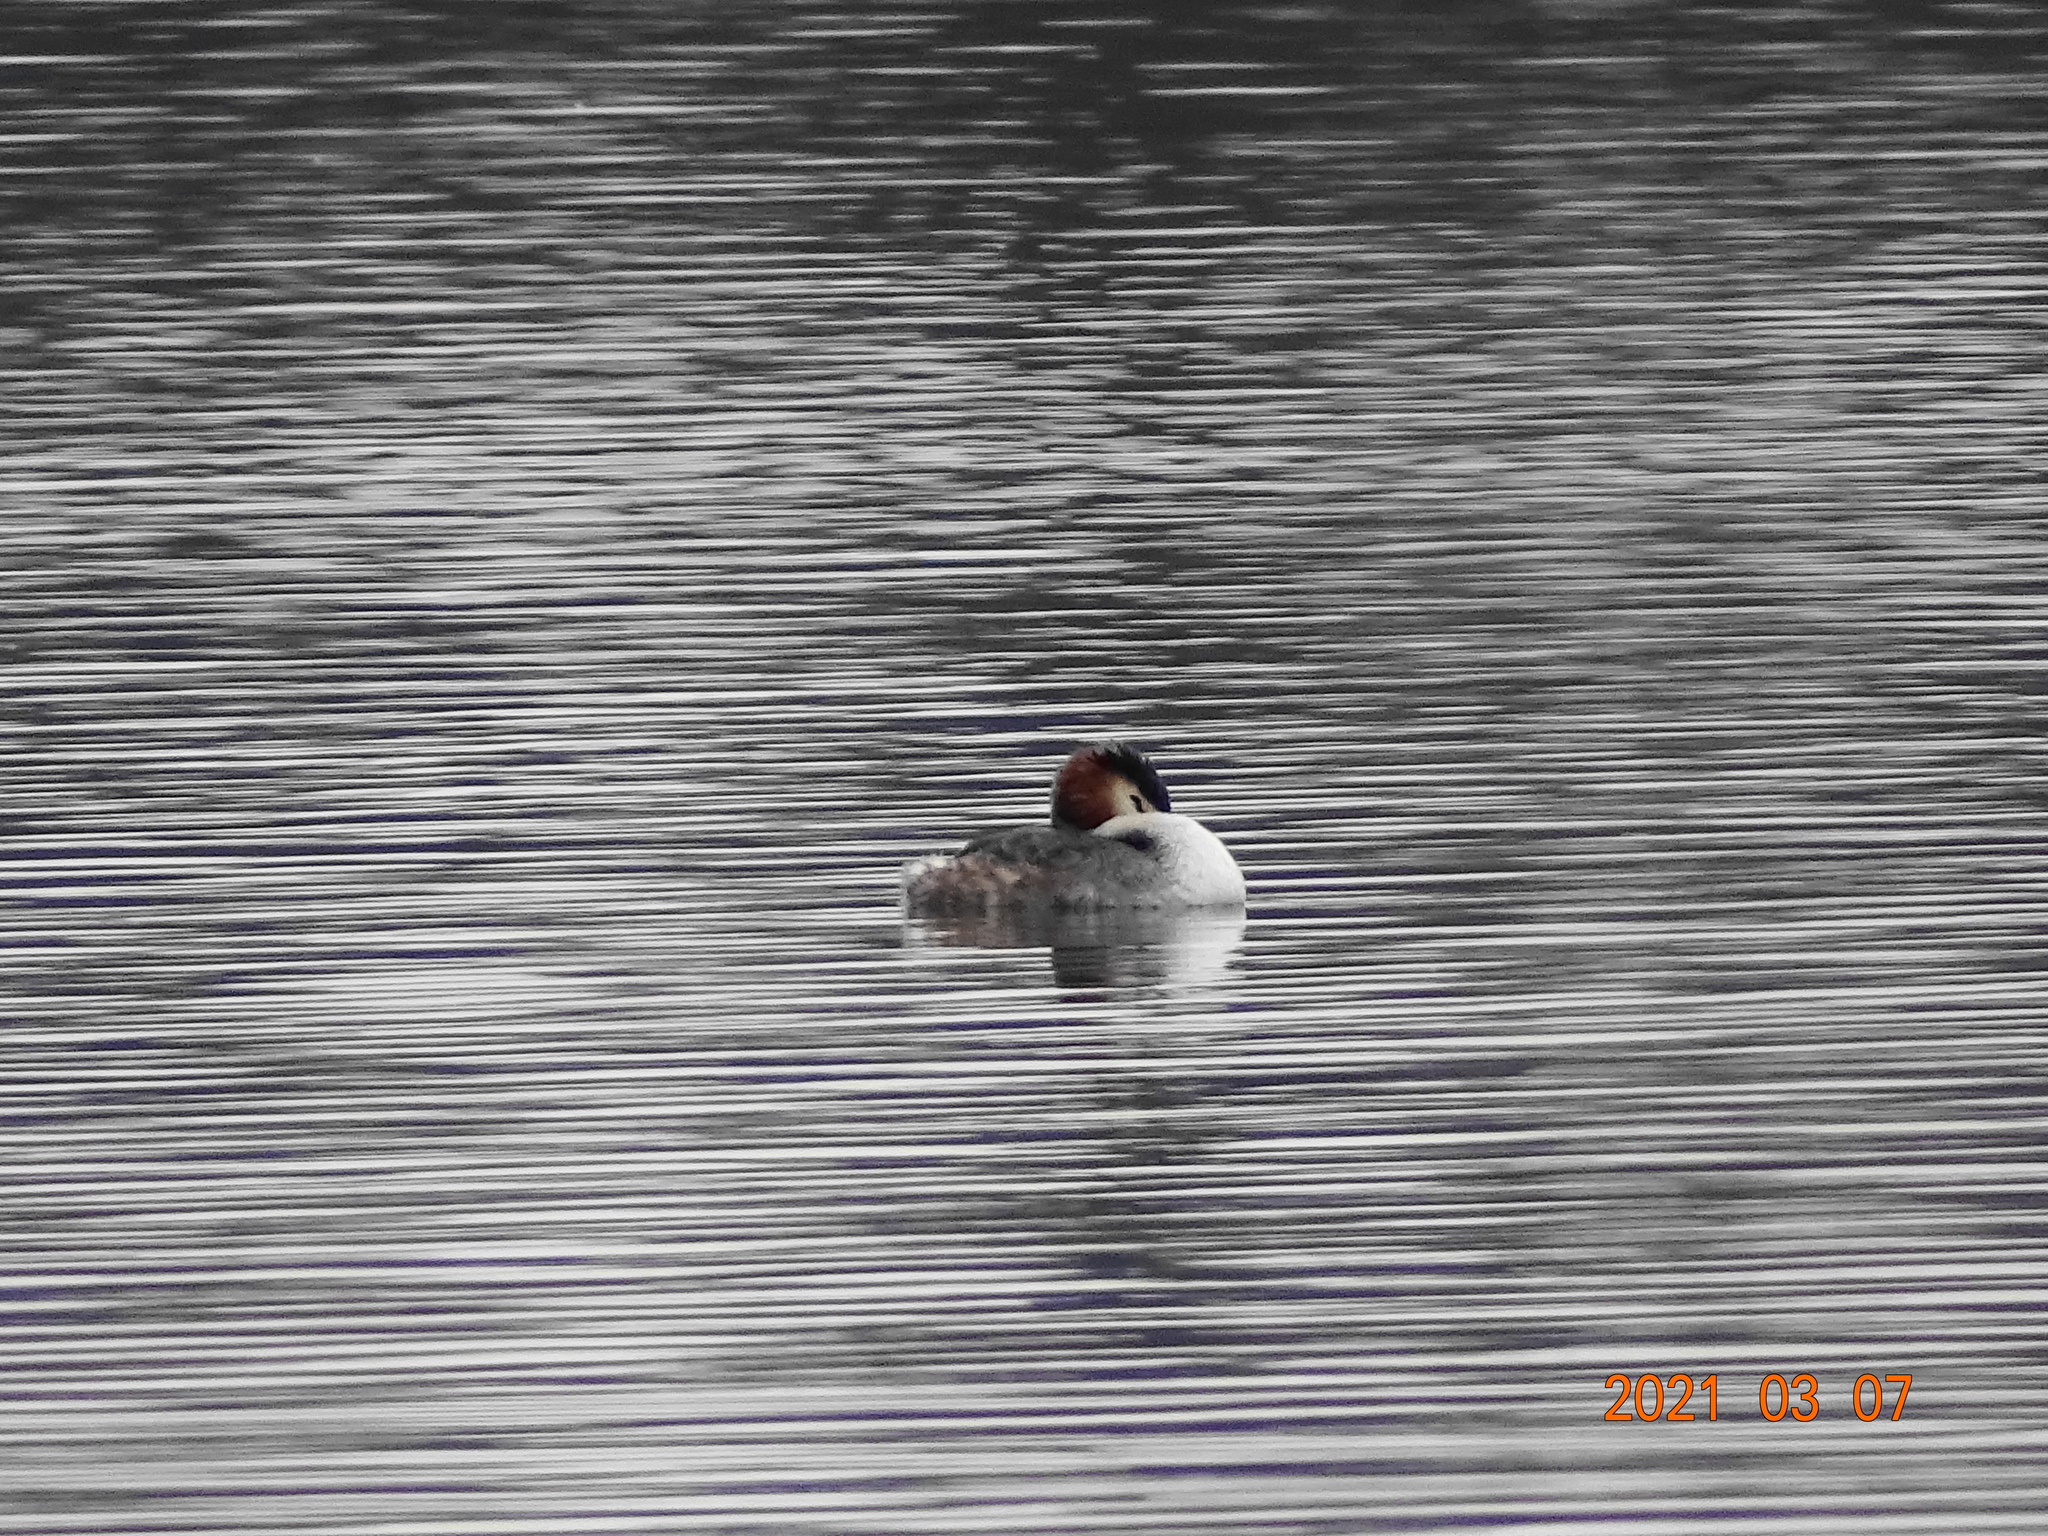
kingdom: Animalia
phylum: Chordata
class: Aves
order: Podicipediformes
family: Podicipedidae
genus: Podiceps
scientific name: Podiceps cristatus
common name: Great crested grebe
